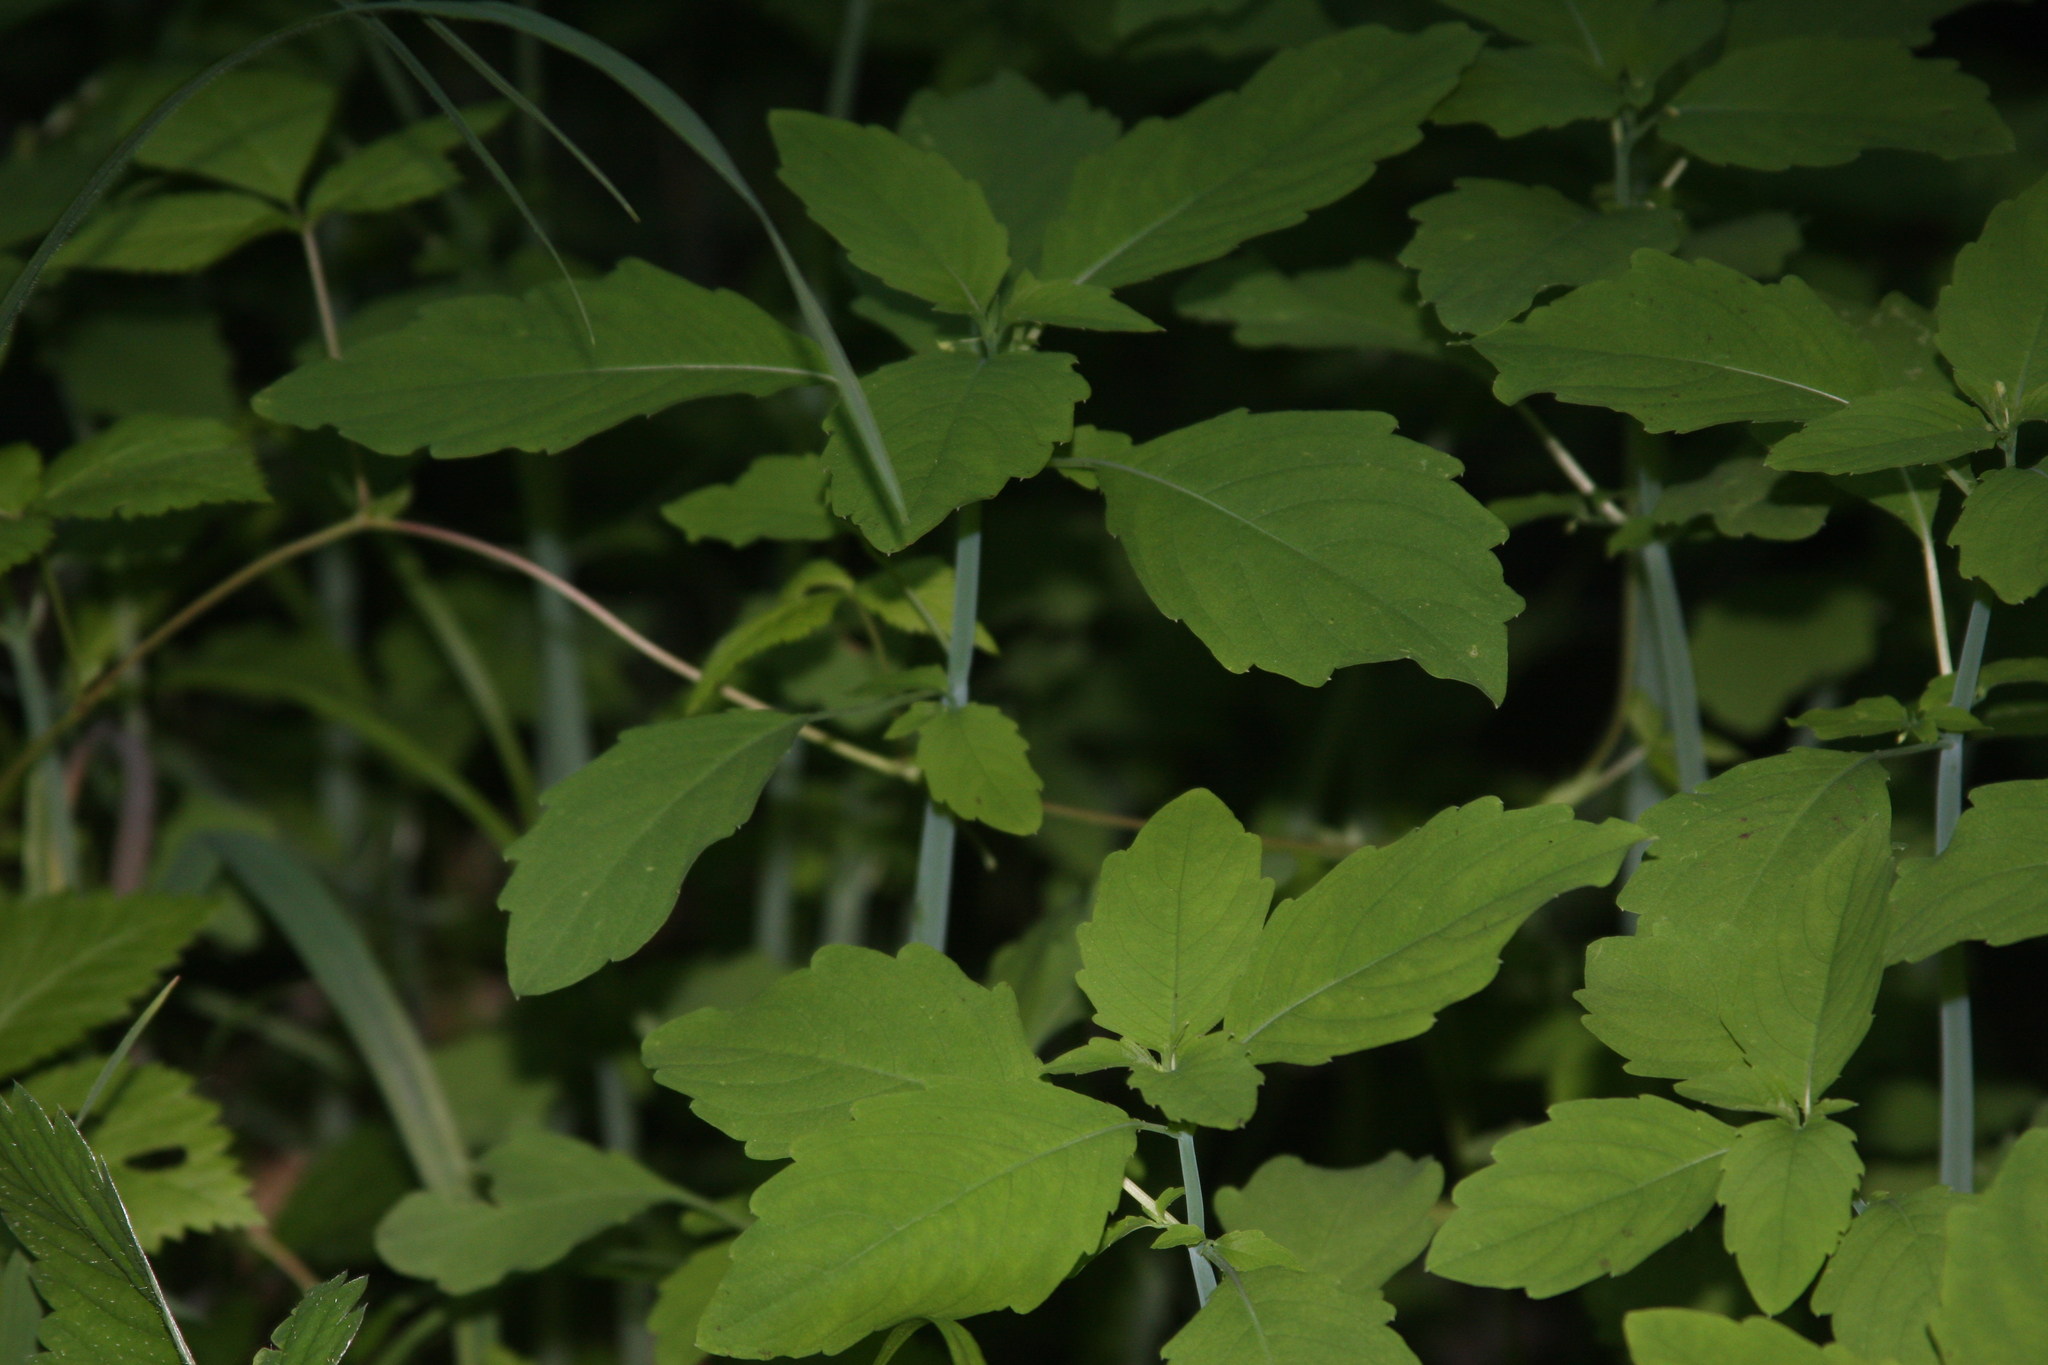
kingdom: Plantae
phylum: Tracheophyta
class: Magnoliopsida
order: Ericales
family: Balsaminaceae
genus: Impatiens
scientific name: Impatiens
